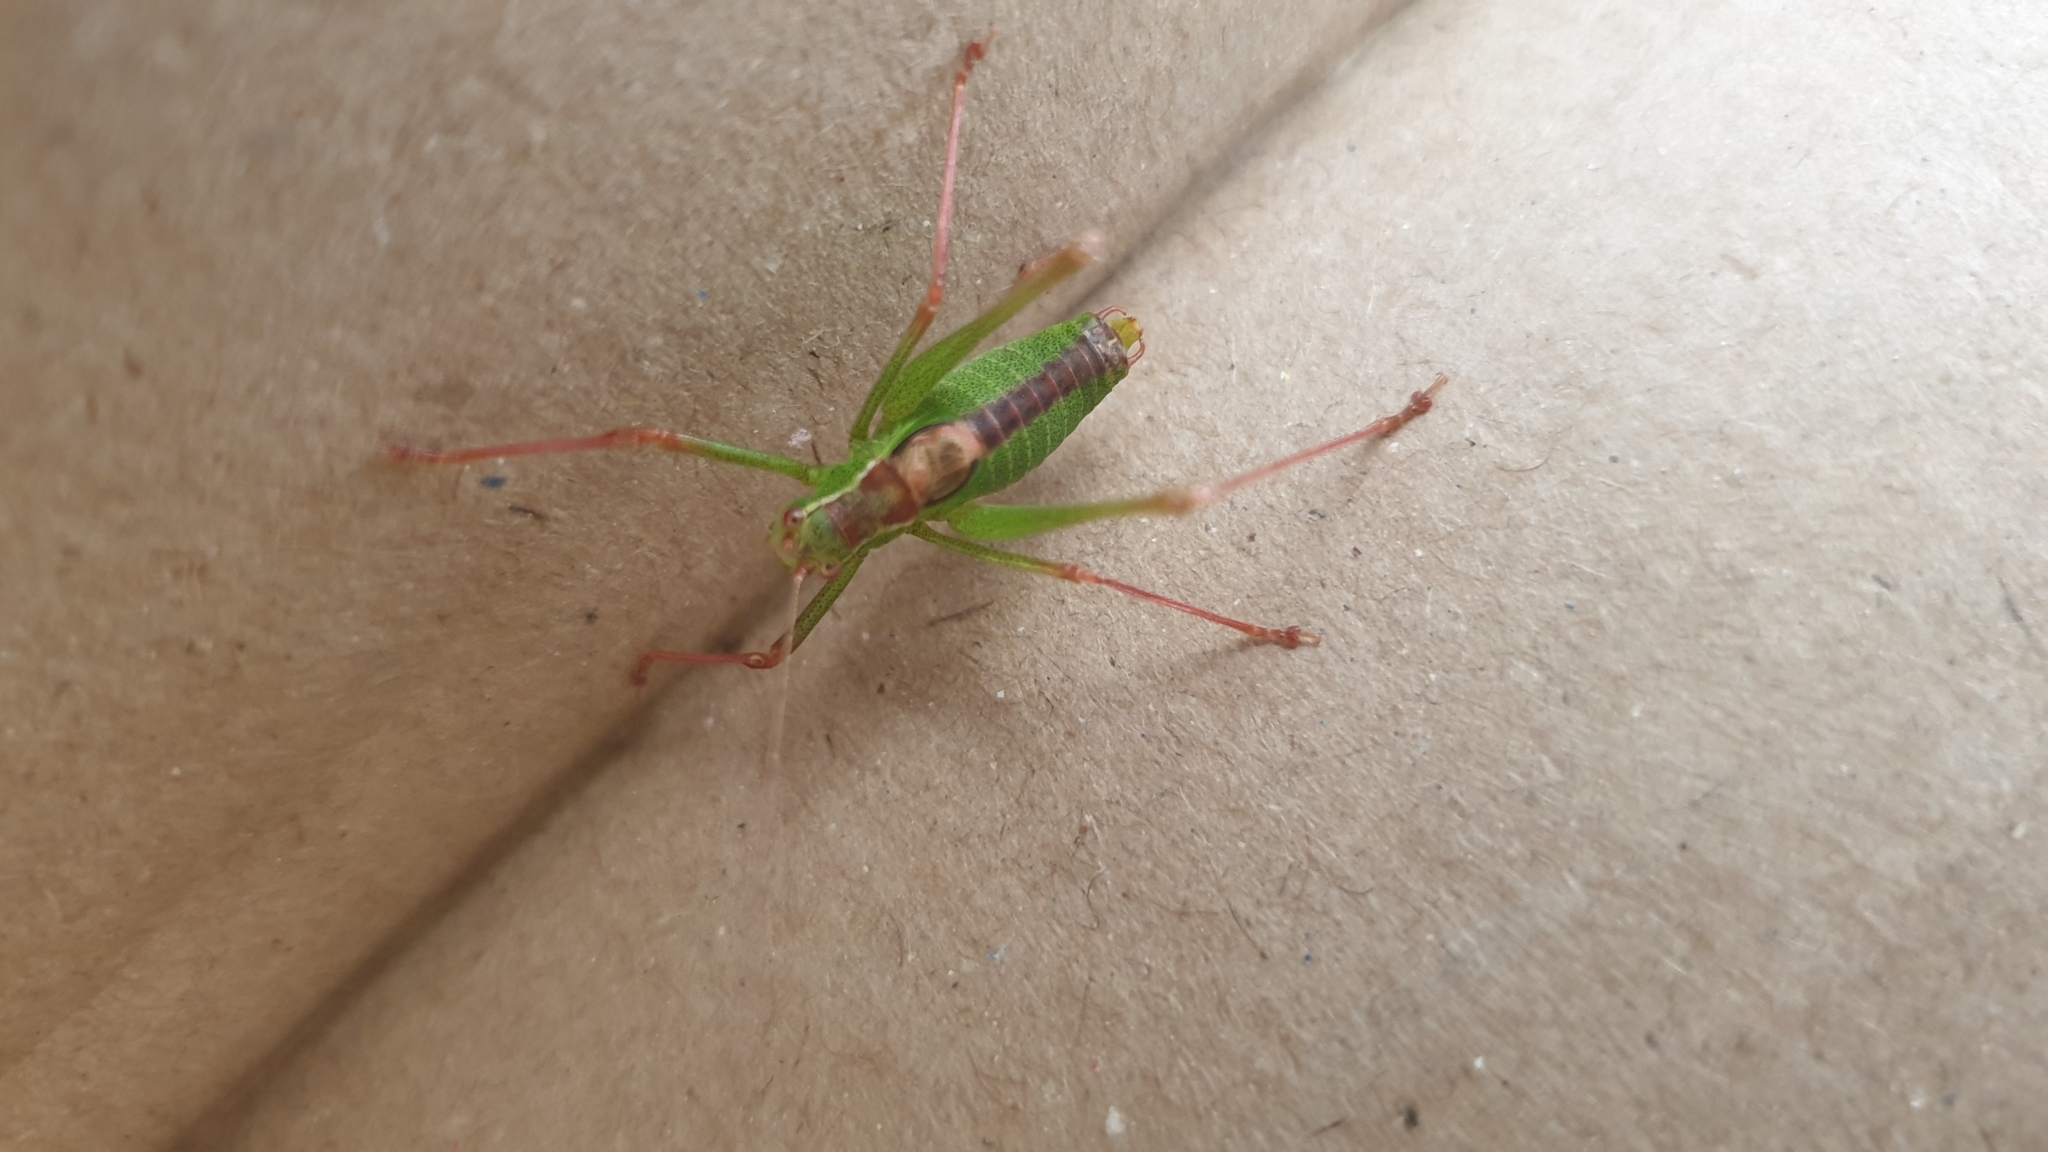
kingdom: Animalia
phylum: Arthropoda
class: Insecta
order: Orthoptera
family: Tettigoniidae
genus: Leptophyes
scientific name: Leptophyes punctatissima
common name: Speckled bush-cricket
